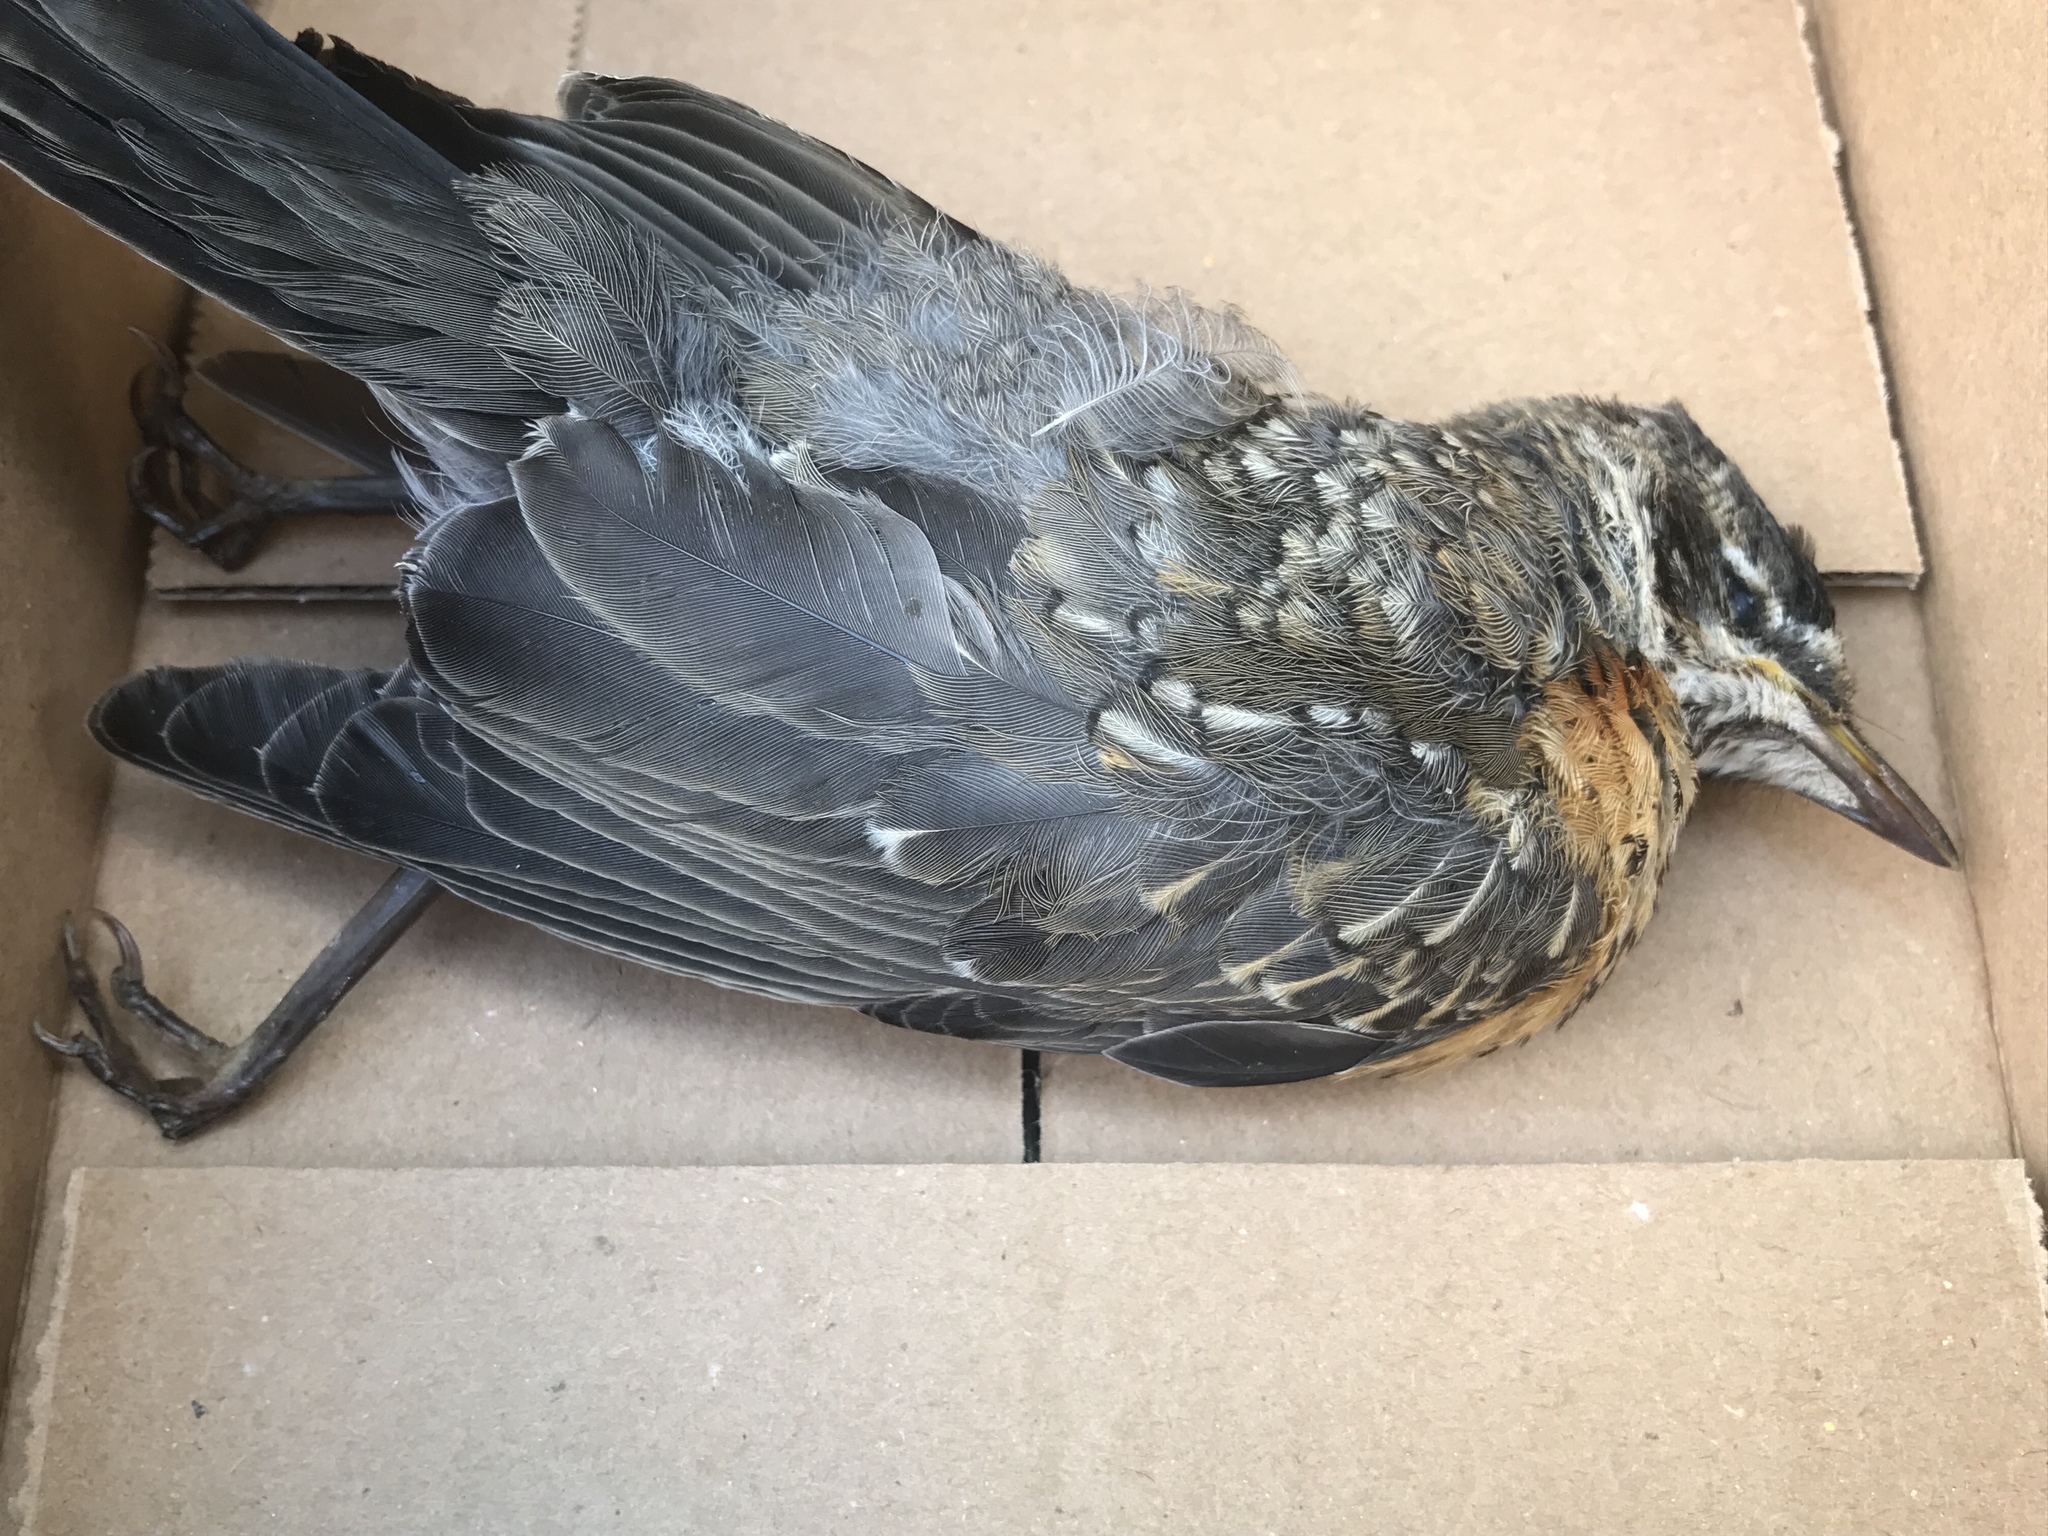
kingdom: Animalia
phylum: Chordata
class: Aves
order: Passeriformes
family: Turdidae
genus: Turdus
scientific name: Turdus migratorius
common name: American robin
